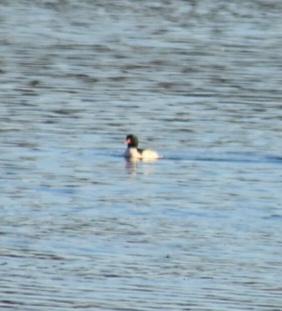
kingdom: Animalia
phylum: Chordata
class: Aves
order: Anseriformes
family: Anatidae
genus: Mergus
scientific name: Mergus merganser
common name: Common merganser
